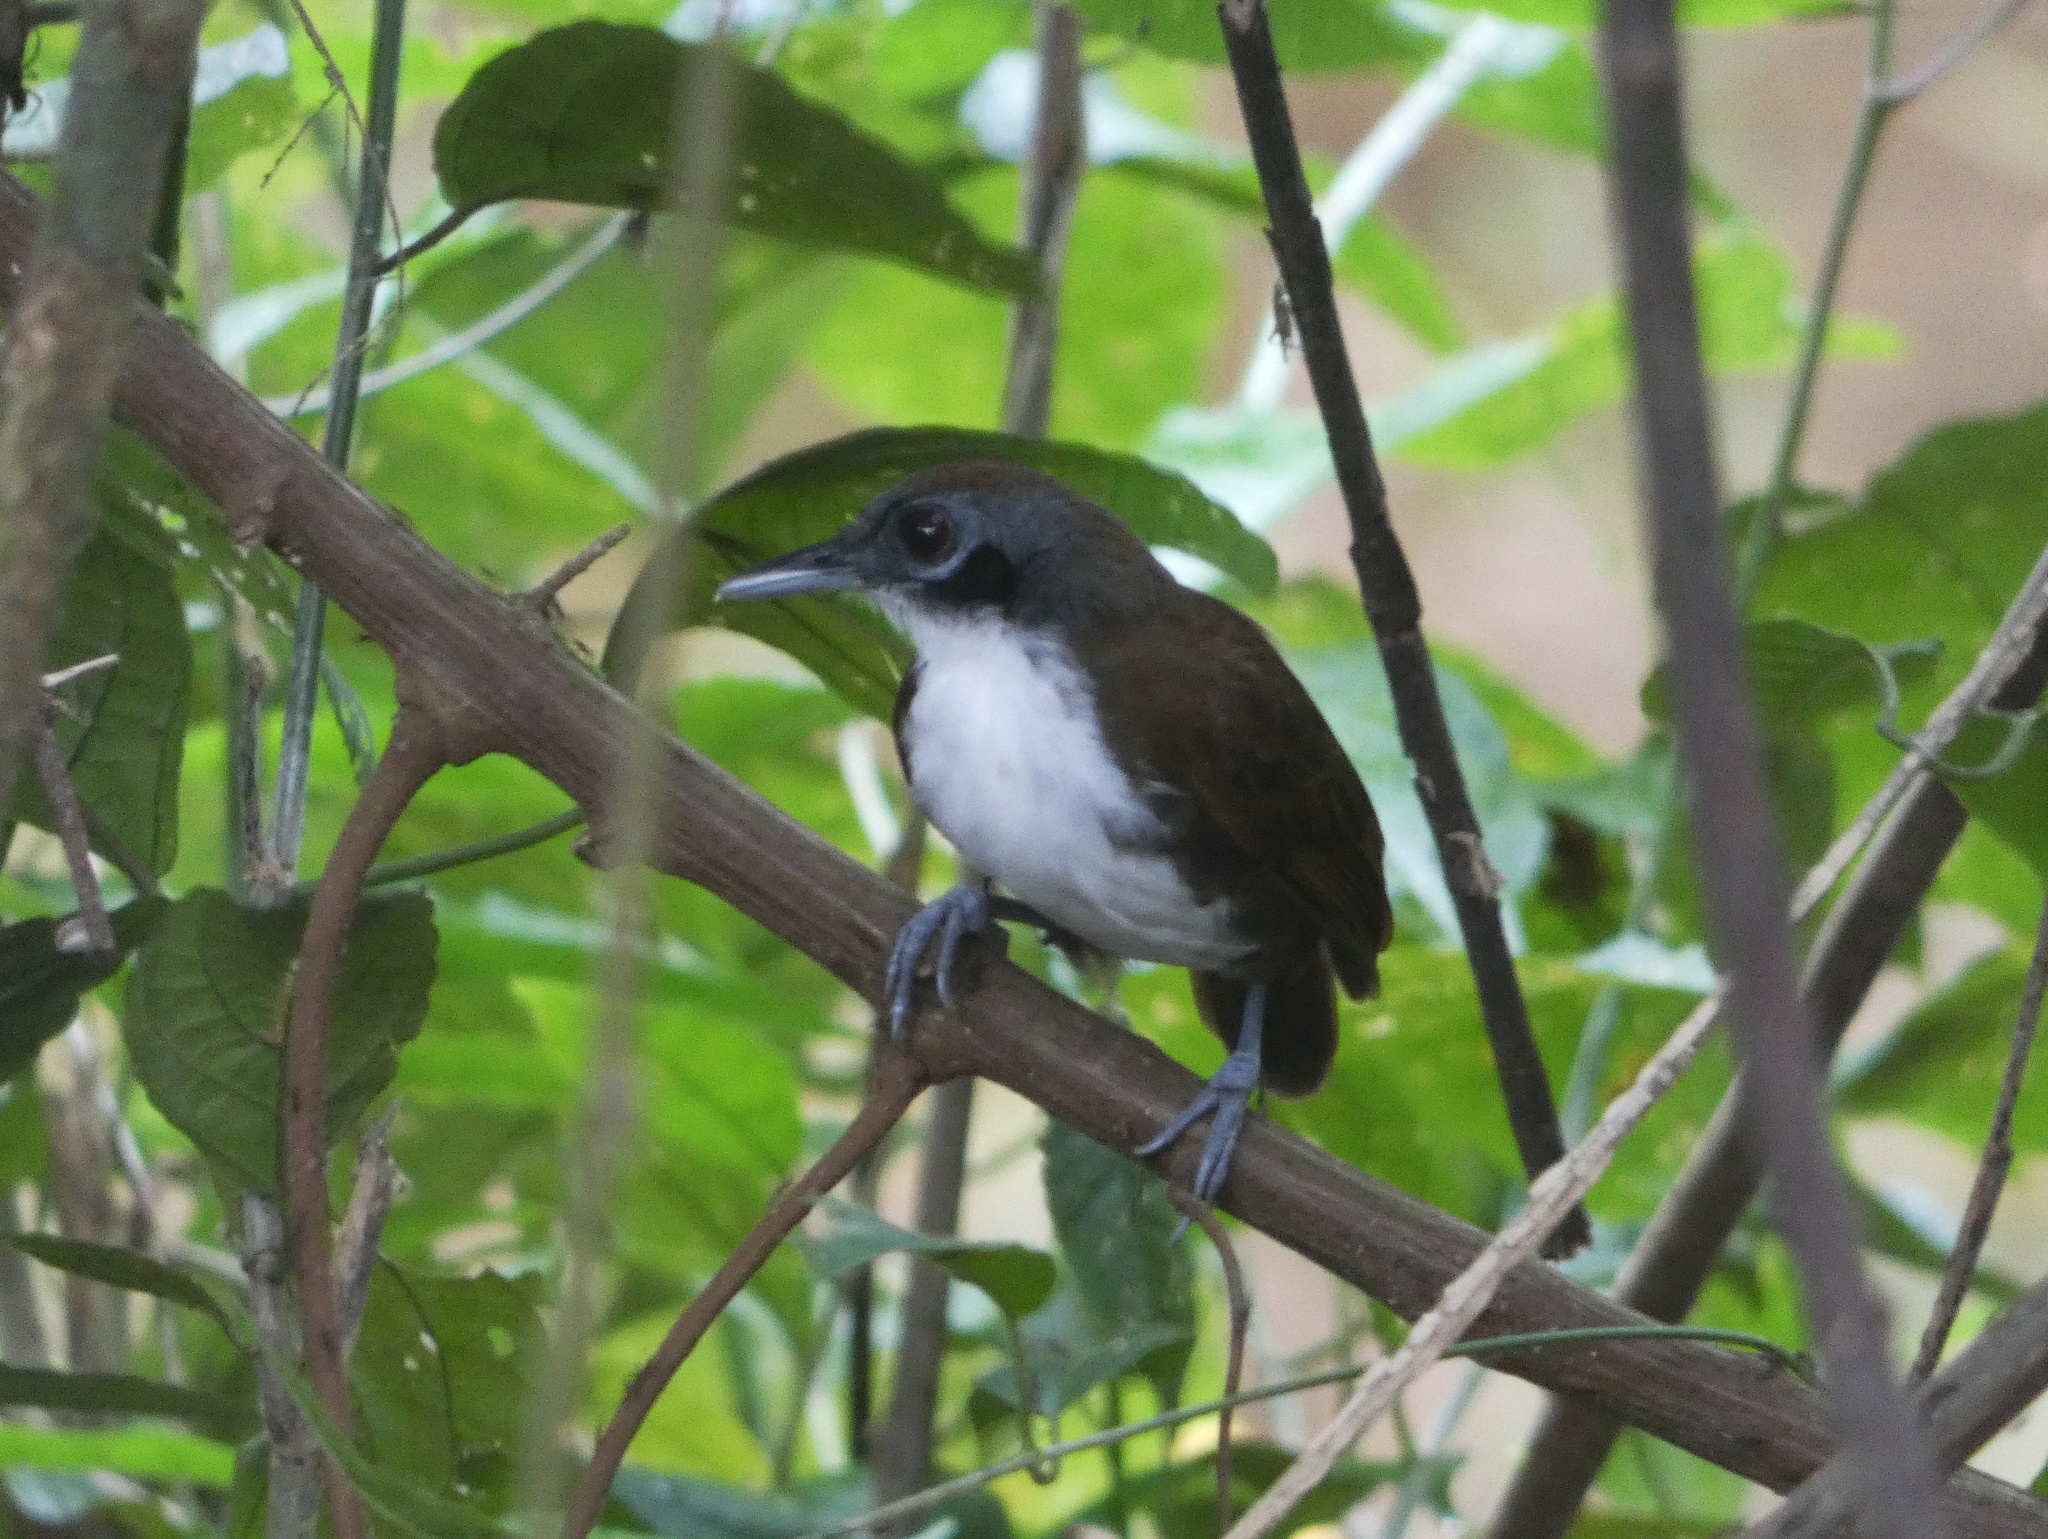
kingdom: Animalia
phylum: Chordata
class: Aves
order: Passeriformes
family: Thamnophilidae
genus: Gymnopithys
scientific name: Gymnopithys leucaspis
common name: White-cheeked antbird
